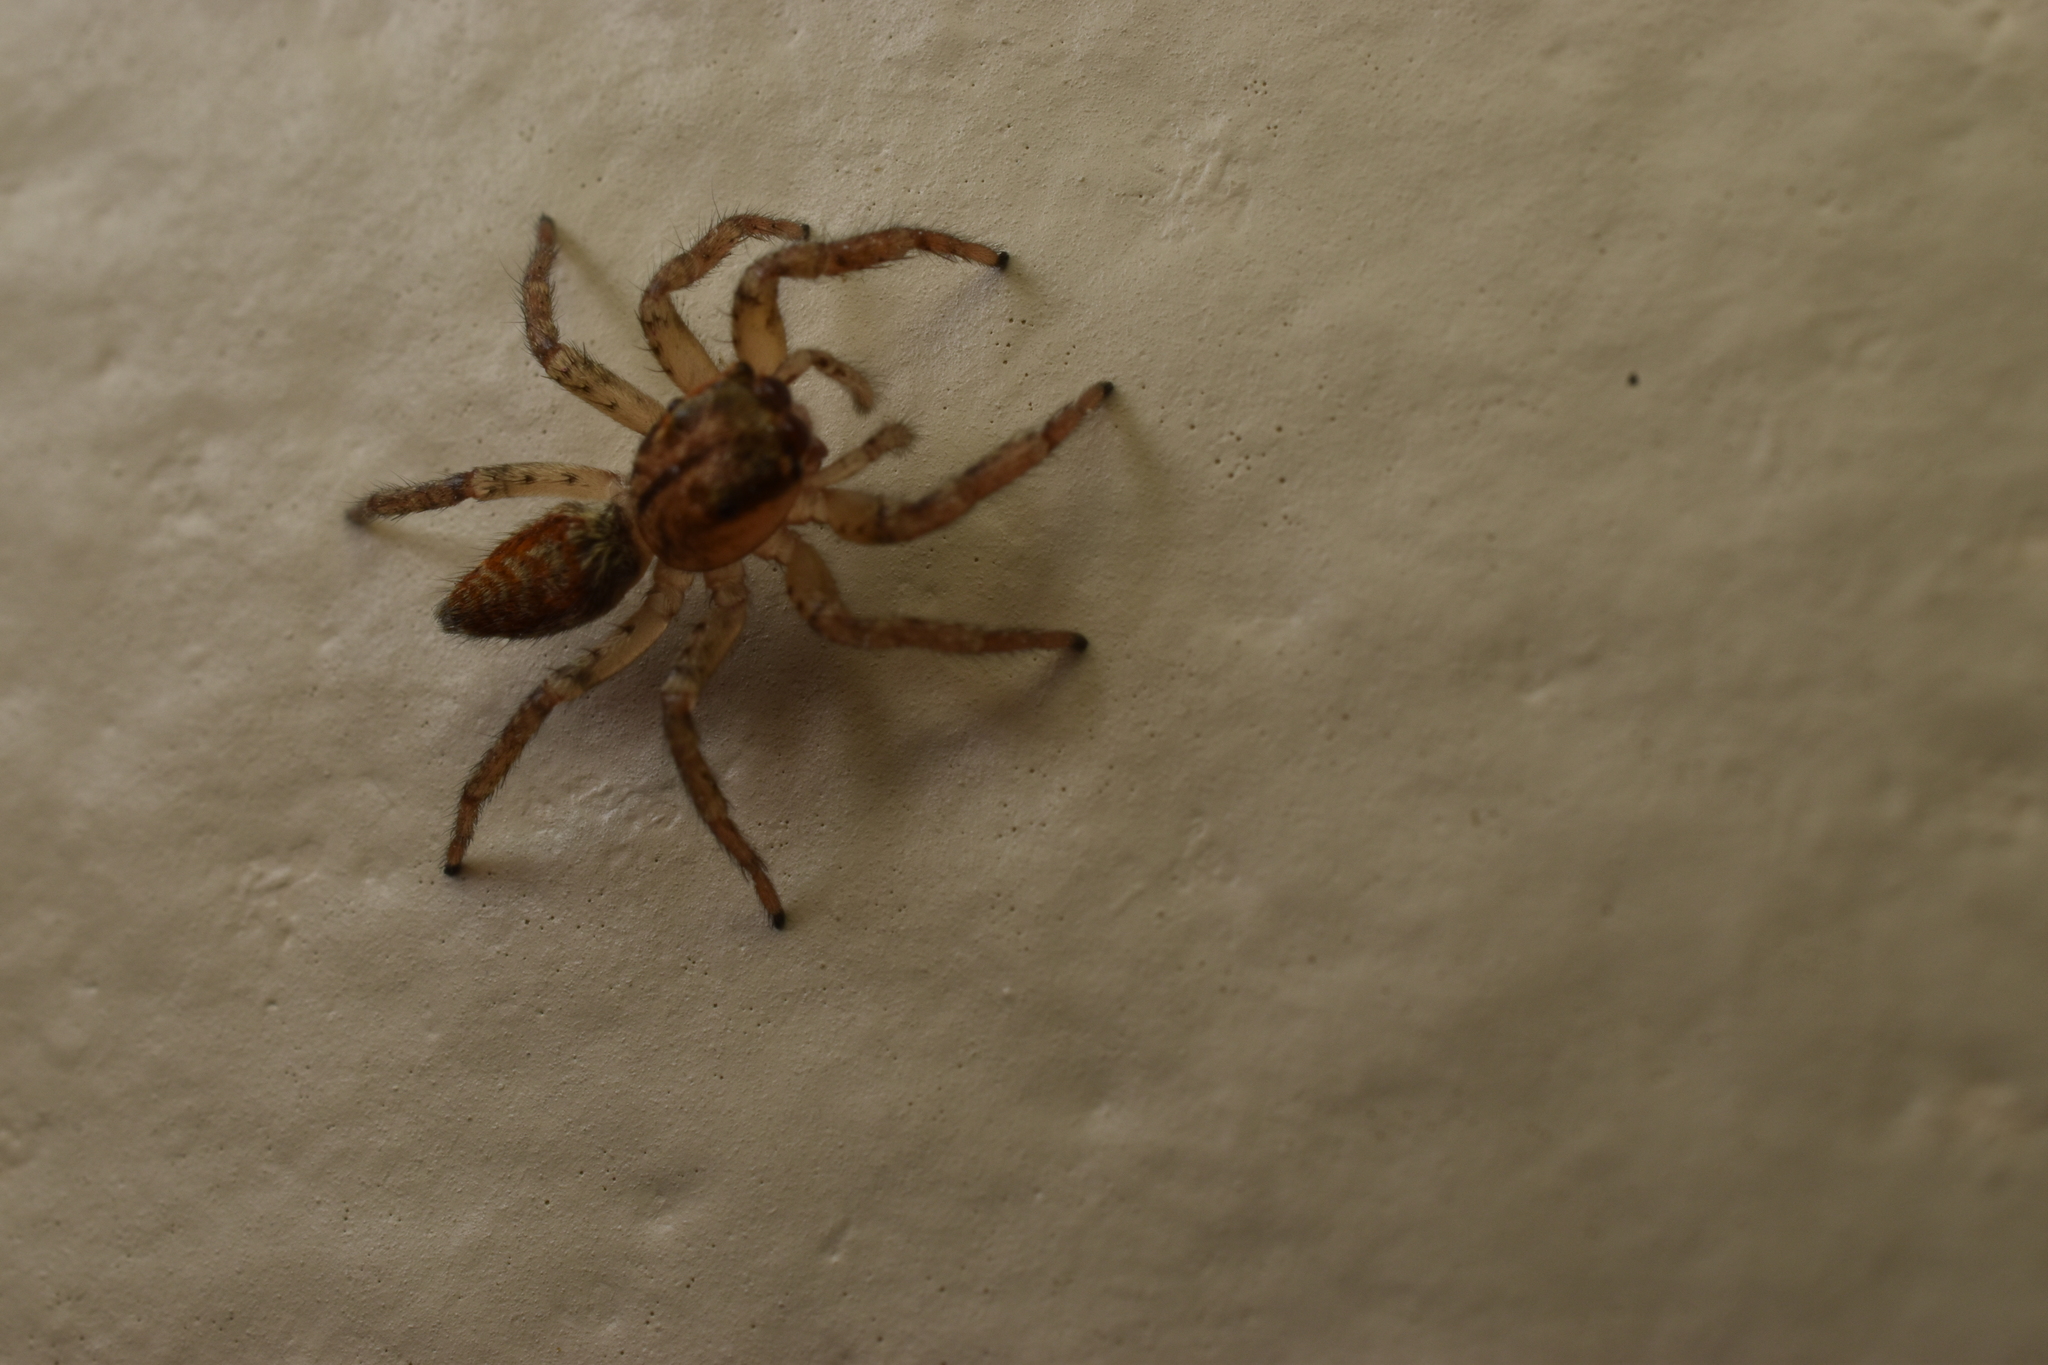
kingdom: Animalia
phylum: Arthropoda
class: Arachnida
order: Araneae
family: Salticidae
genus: Maevia
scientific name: Maevia inclemens
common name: Dimorphic jumper
